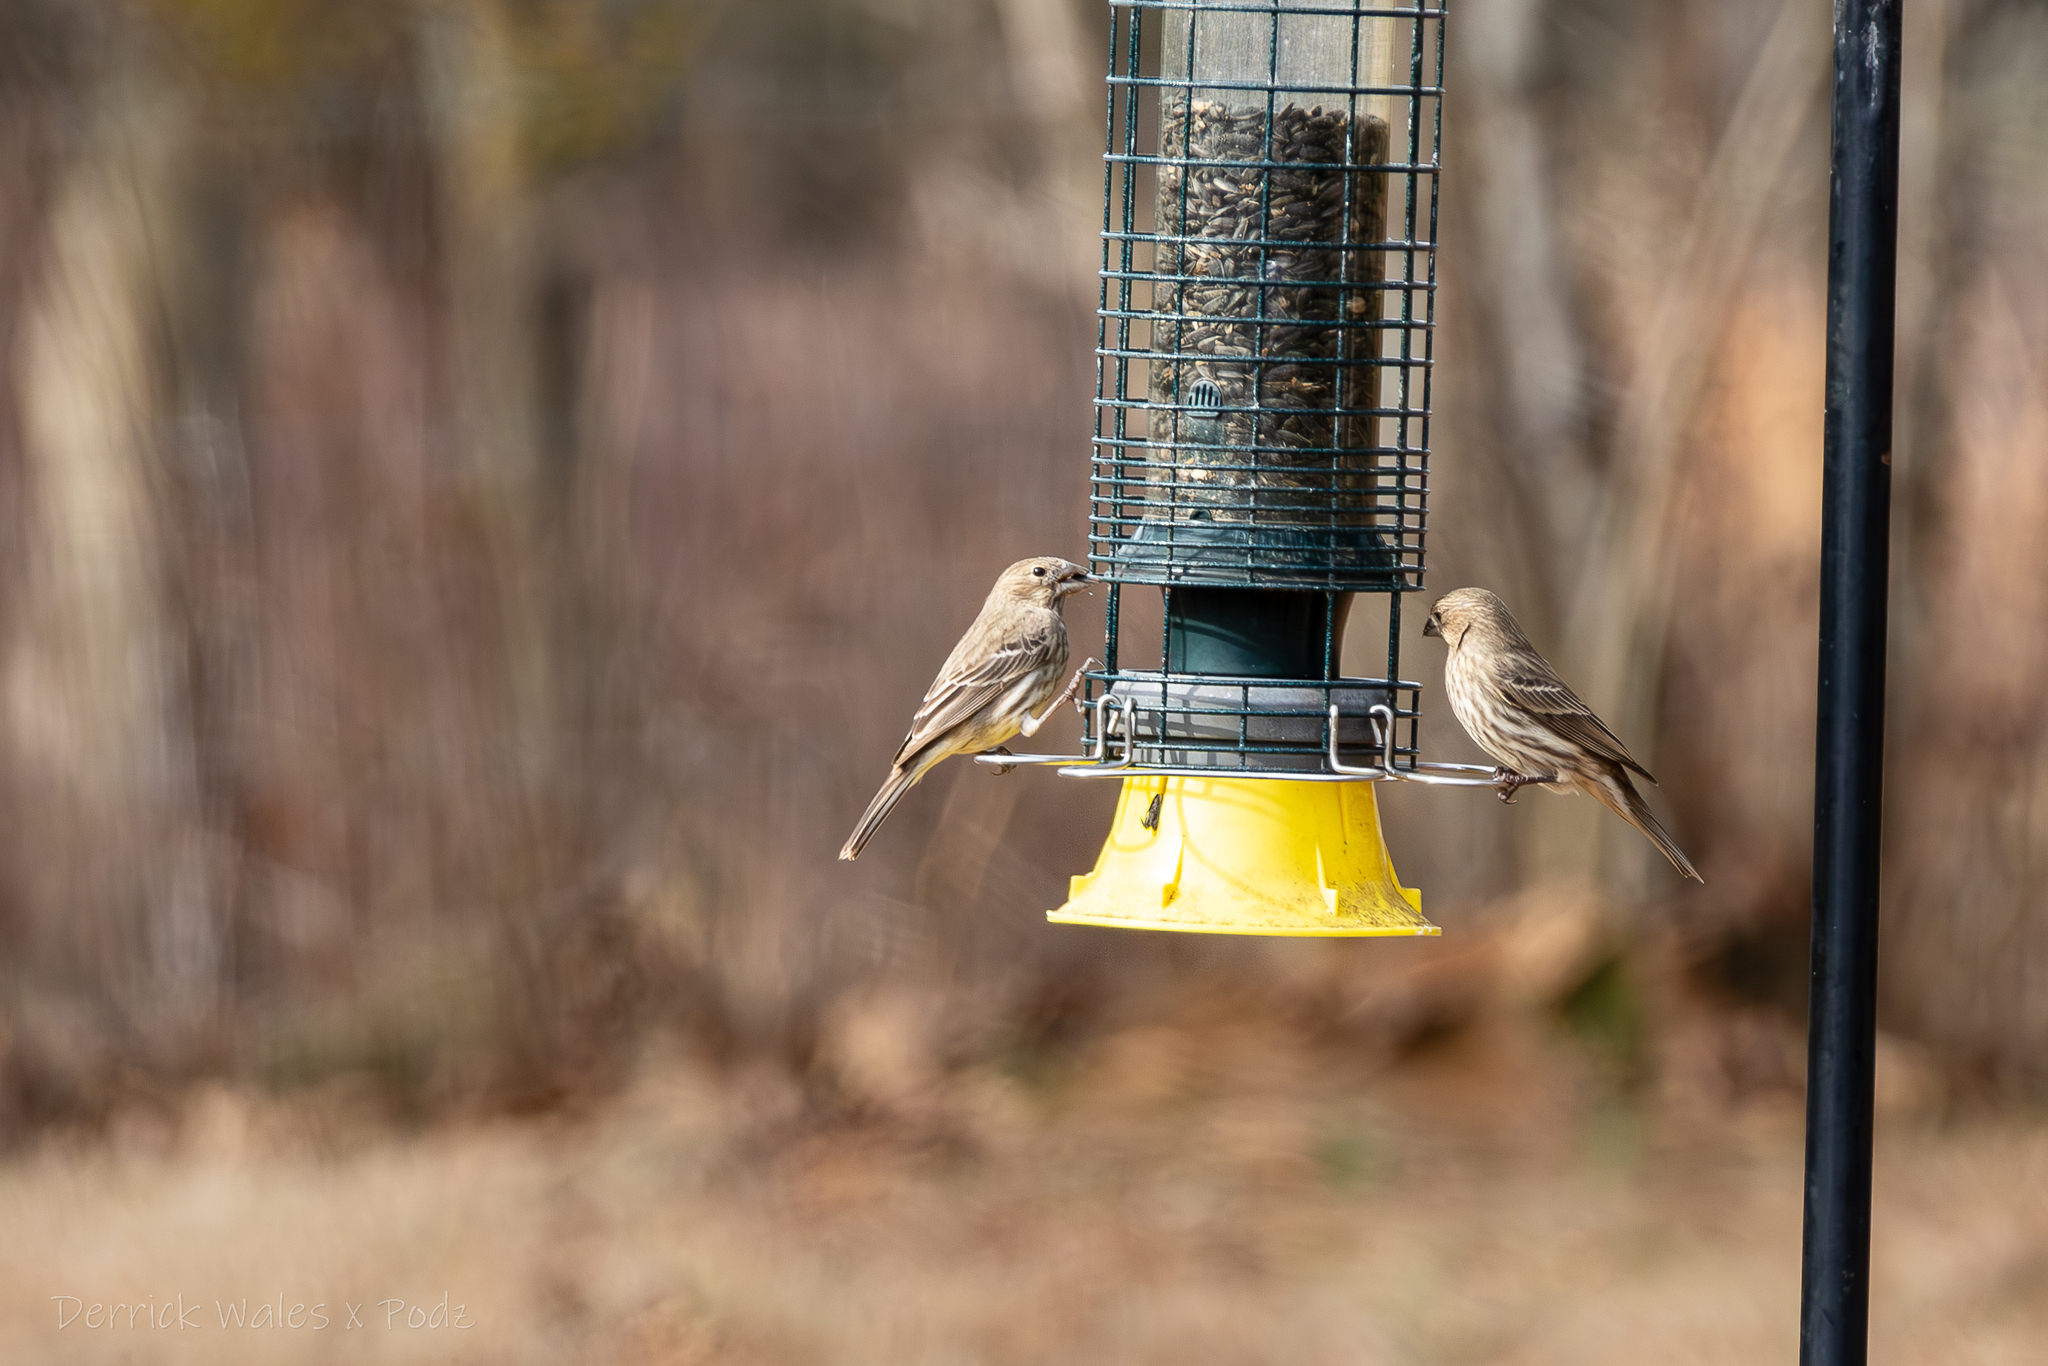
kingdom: Animalia
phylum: Chordata
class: Aves
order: Passeriformes
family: Fringillidae
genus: Haemorhous
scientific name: Haemorhous mexicanus
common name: House finch
